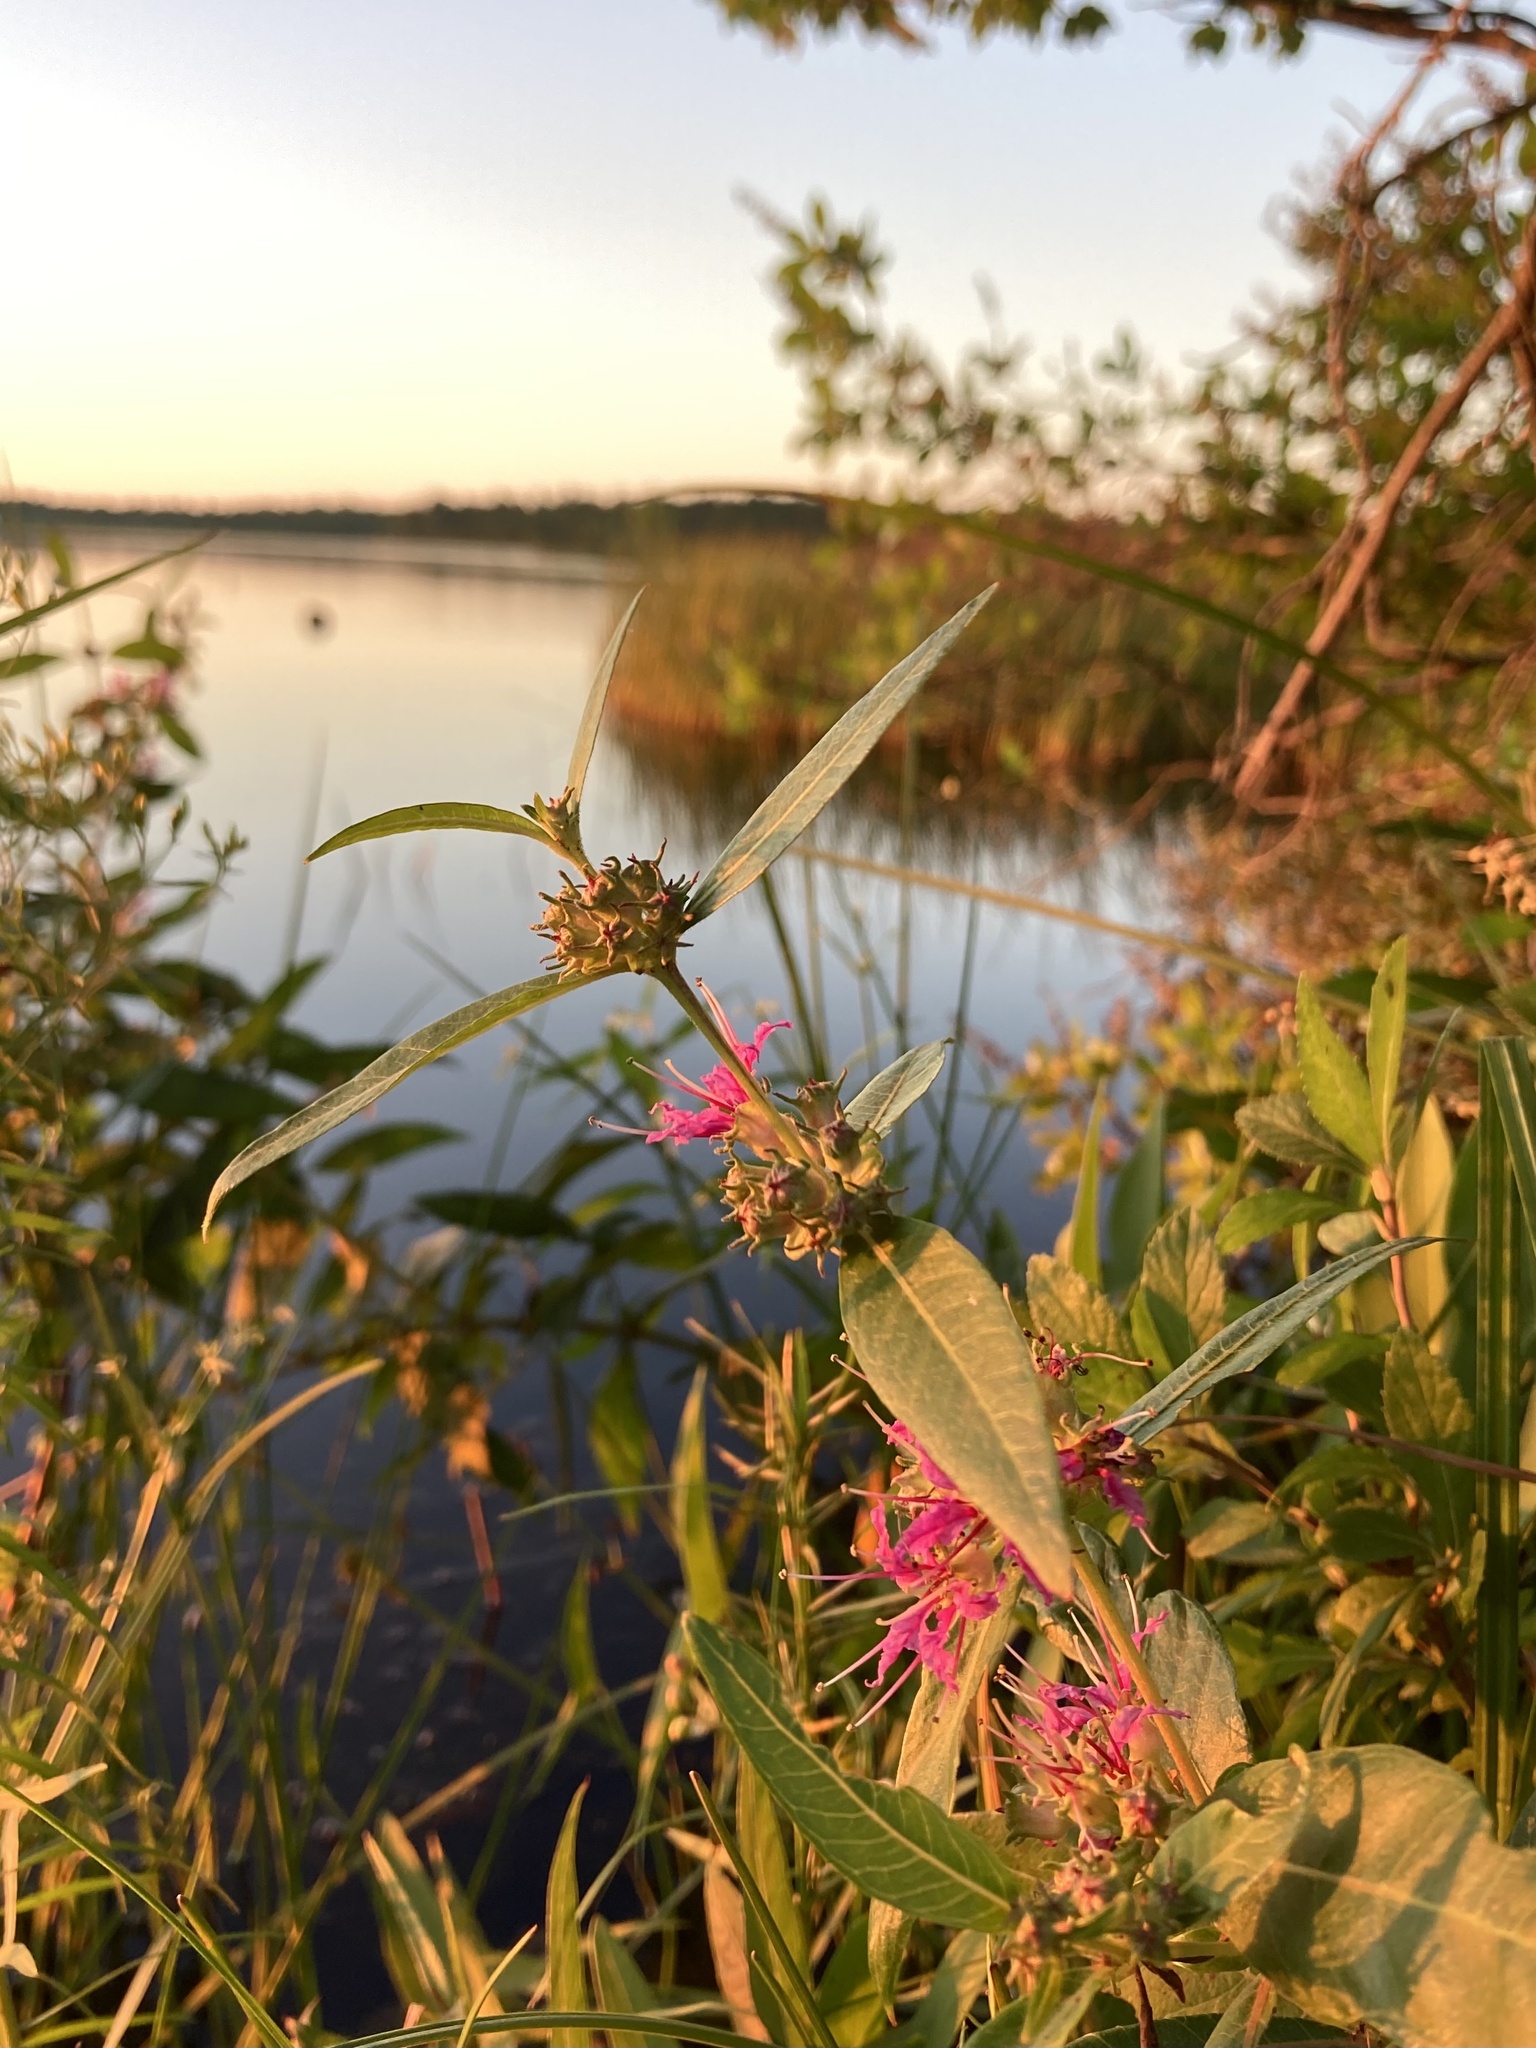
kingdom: Plantae
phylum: Tracheophyta
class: Magnoliopsida
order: Myrtales
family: Lythraceae
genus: Decodon
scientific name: Decodon verticillatus
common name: Hairy swamp loosestrife
